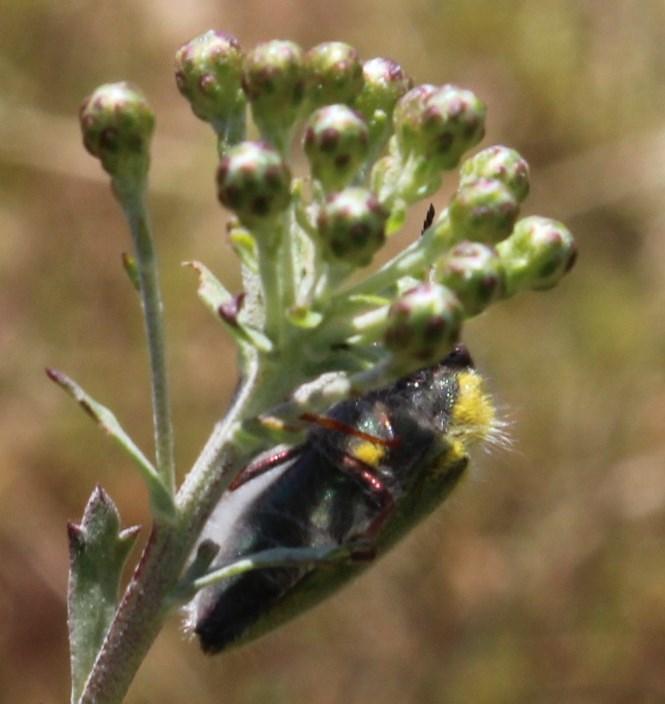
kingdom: Animalia
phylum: Arthropoda
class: Insecta
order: Coleoptera
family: Buprestidae
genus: Neojulodis
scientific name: Neojulodis tomentosa
